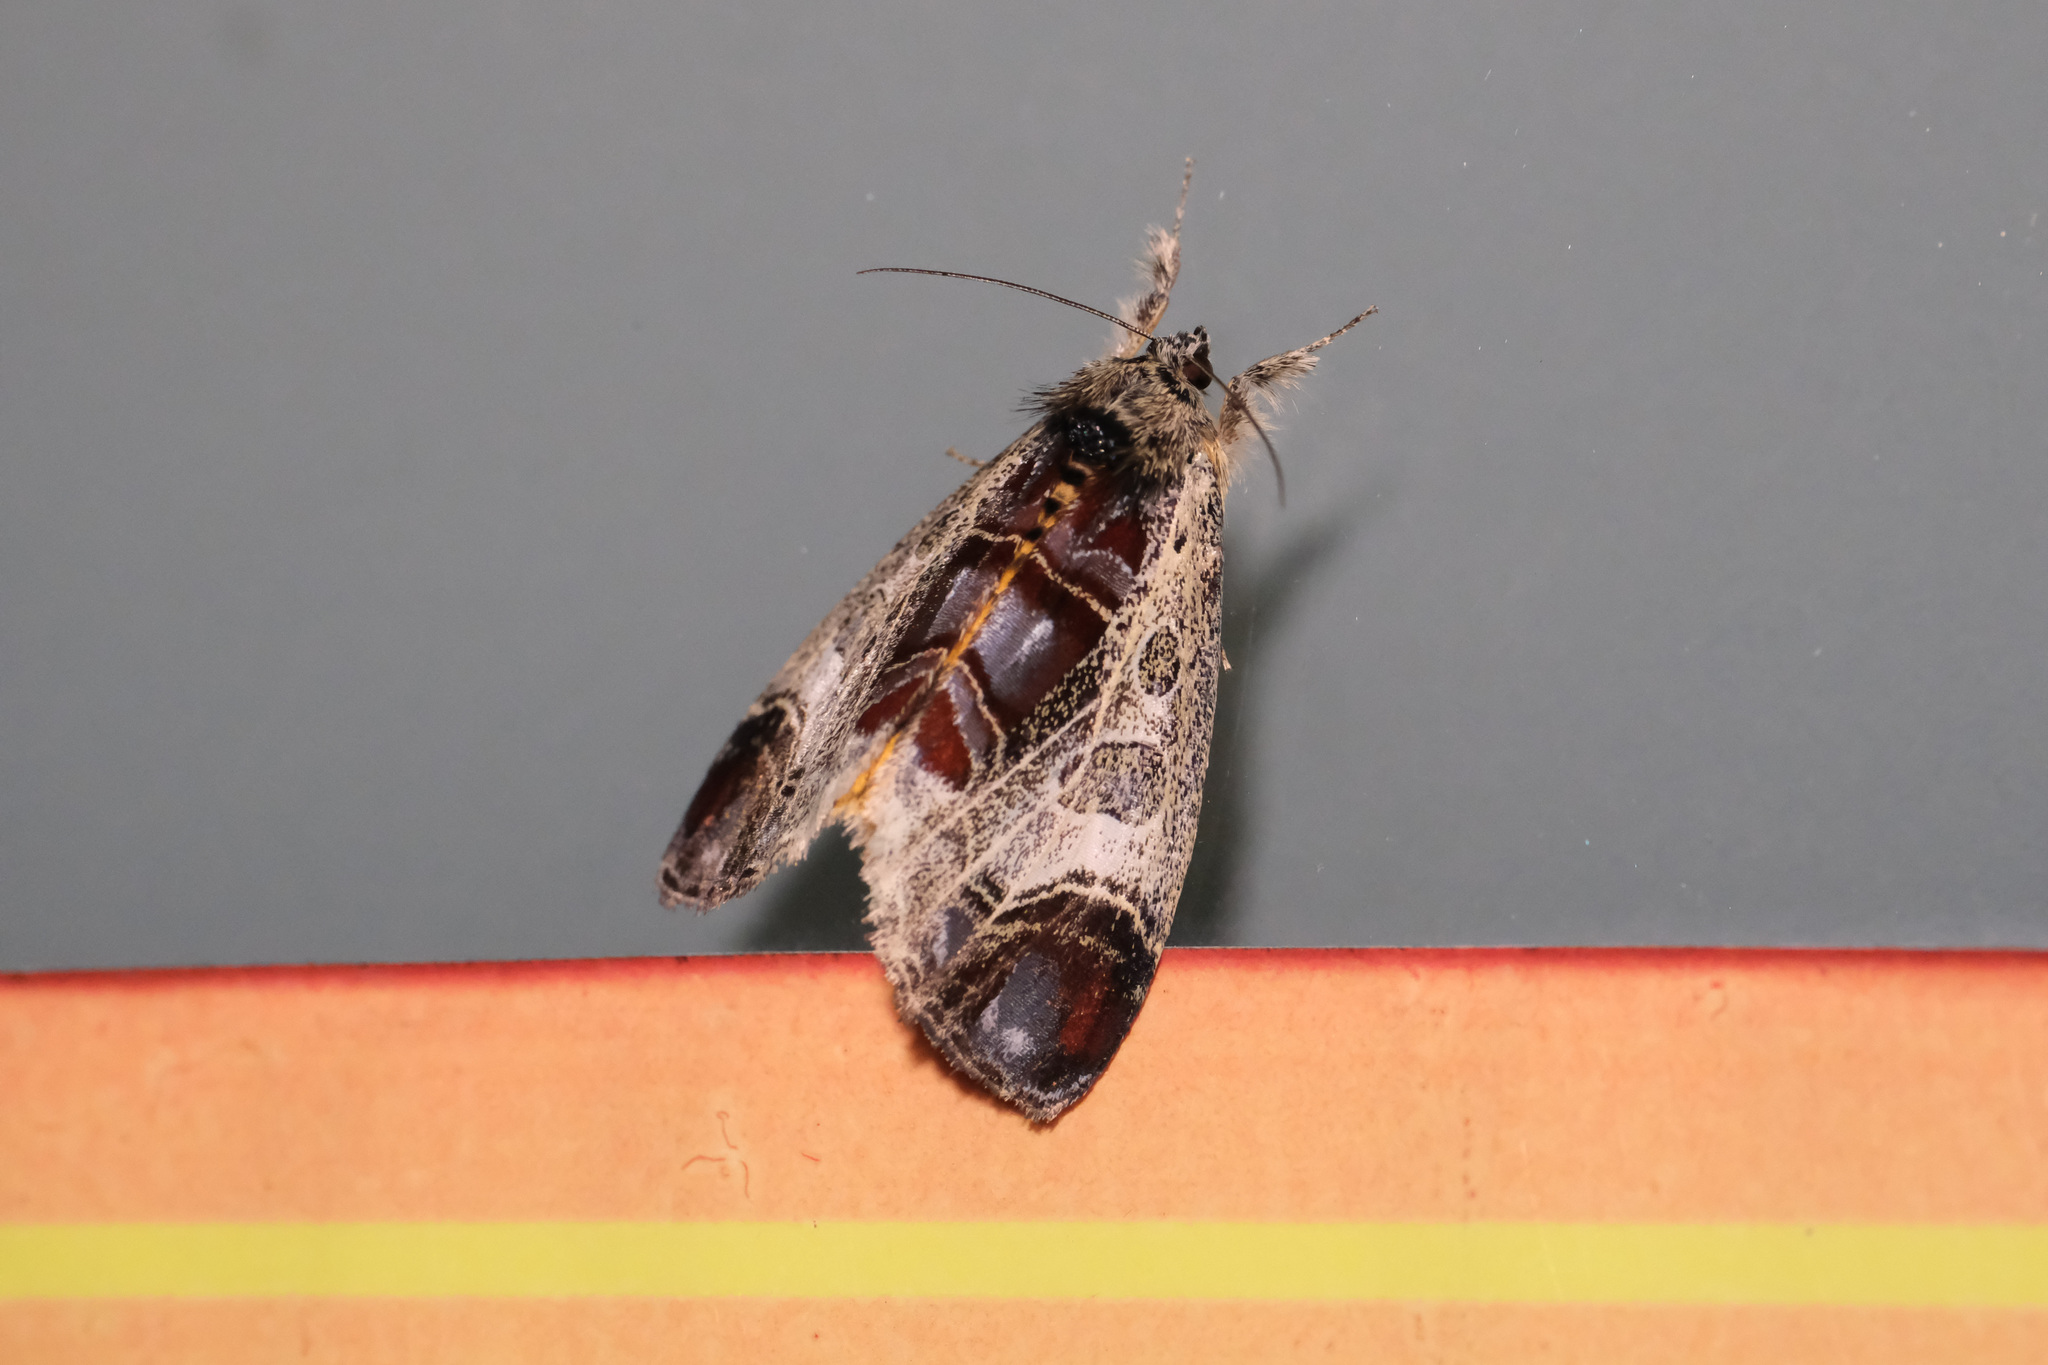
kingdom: Animalia
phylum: Arthropoda
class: Insecta
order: Lepidoptera
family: Noctuidae
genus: Sarbanissa
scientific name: Sarbanissa venusta
